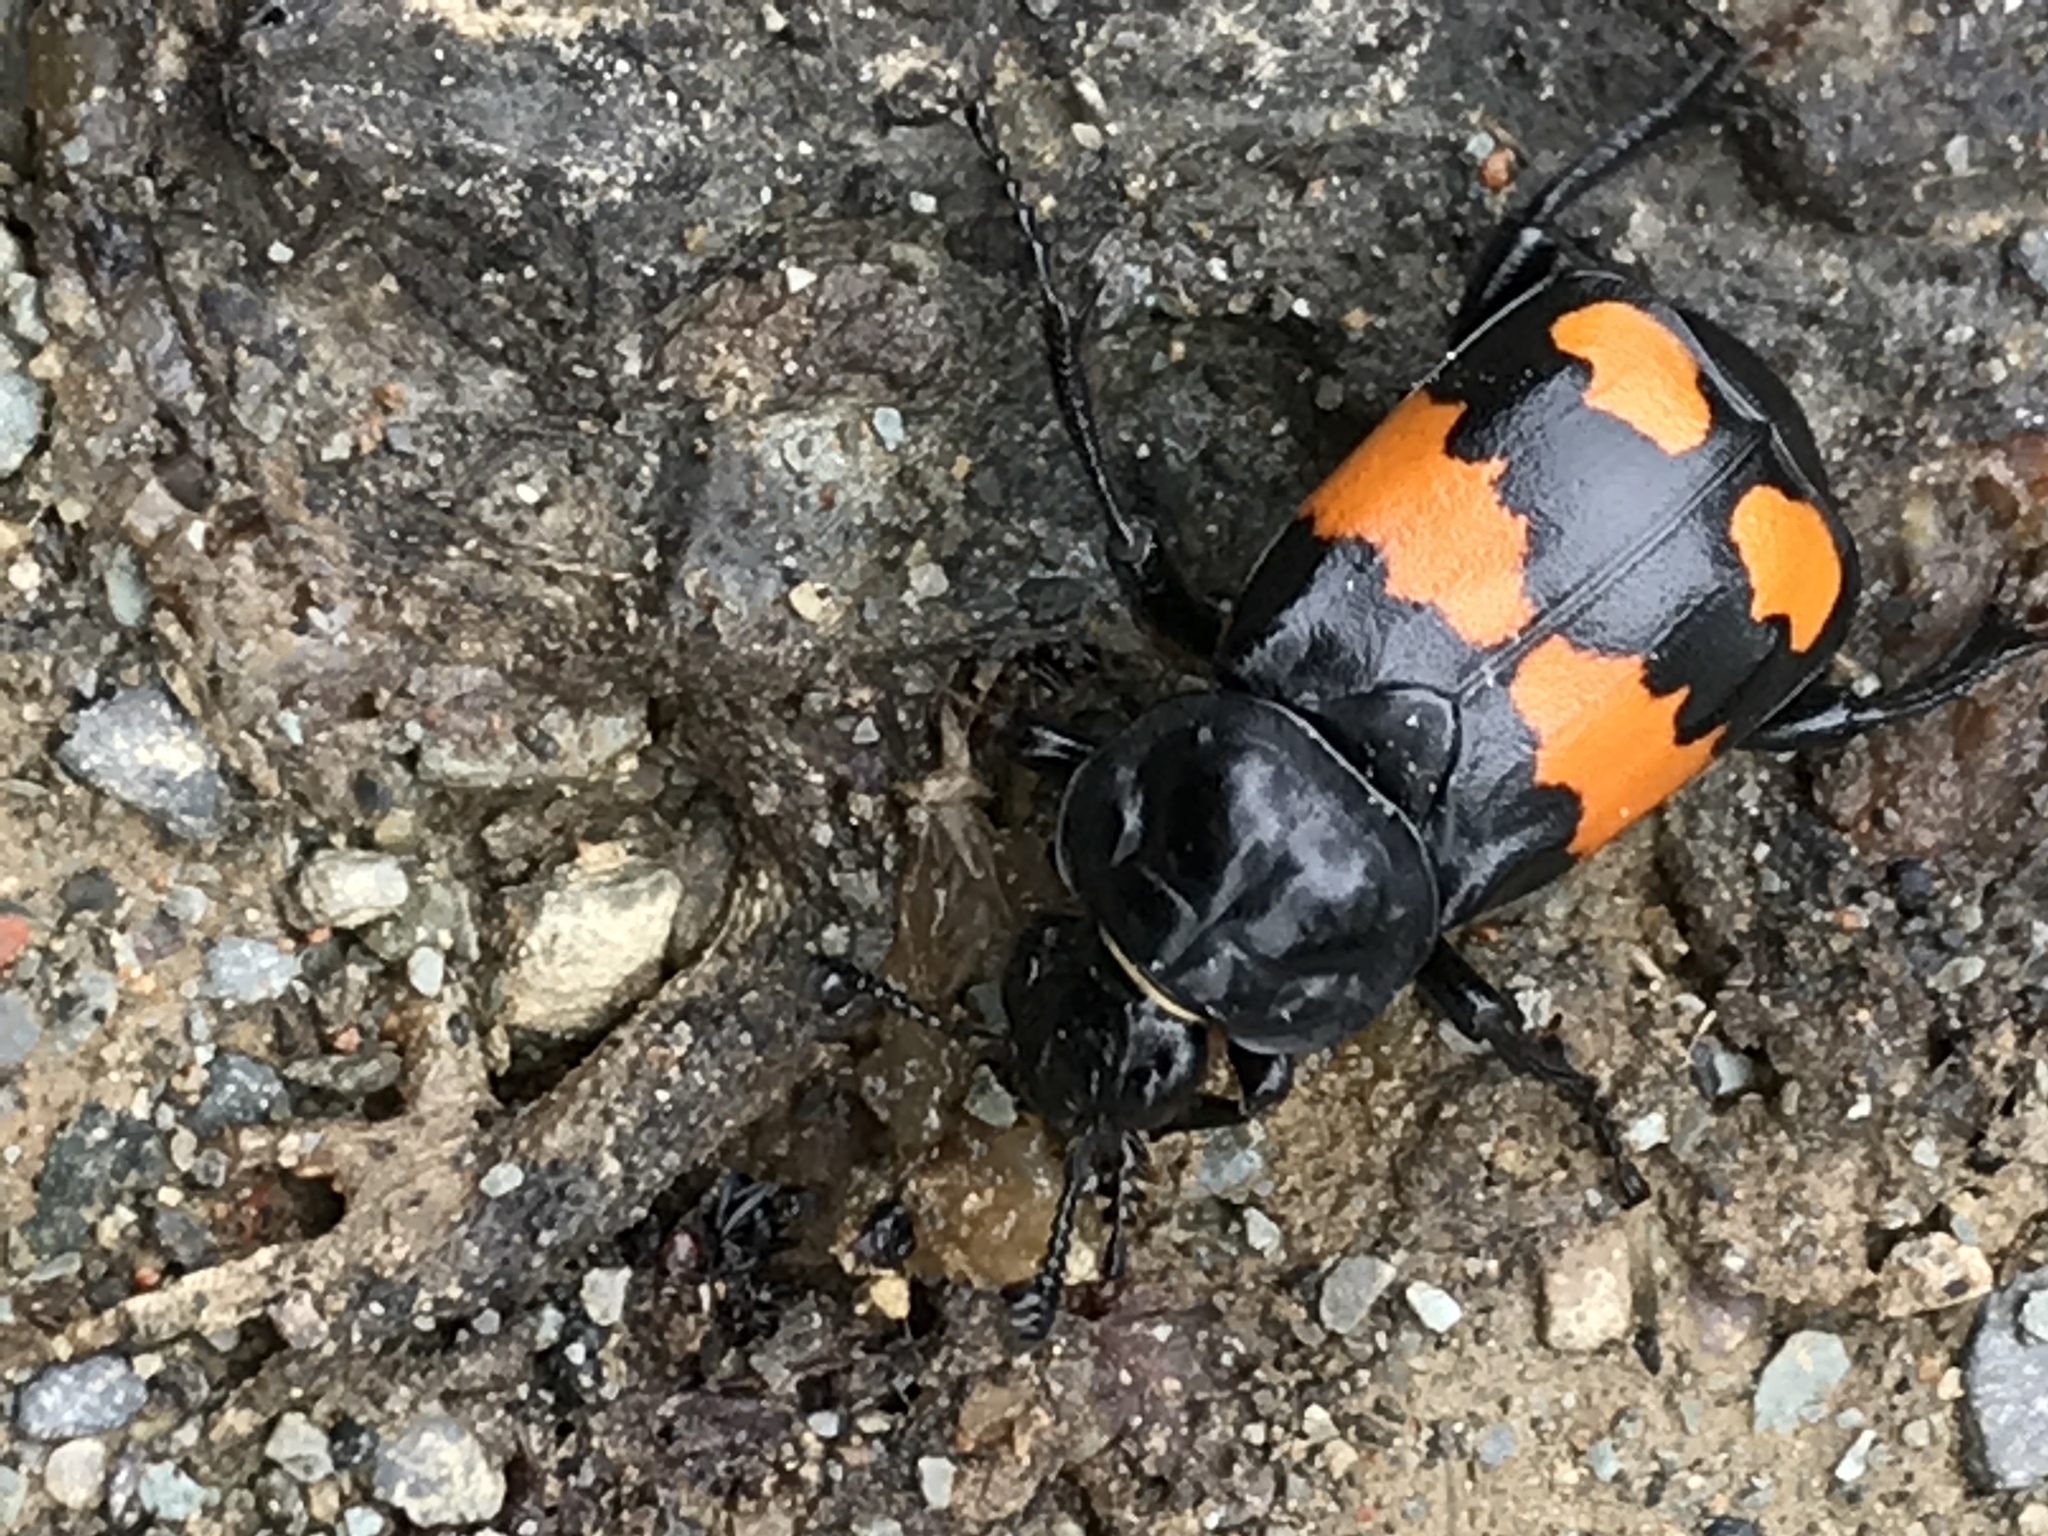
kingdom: Animalia
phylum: Arthropoda
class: Insecta
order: Coleoptera
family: Staphylinidae
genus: Nicrophorus
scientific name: Nicrophorus defodiens
